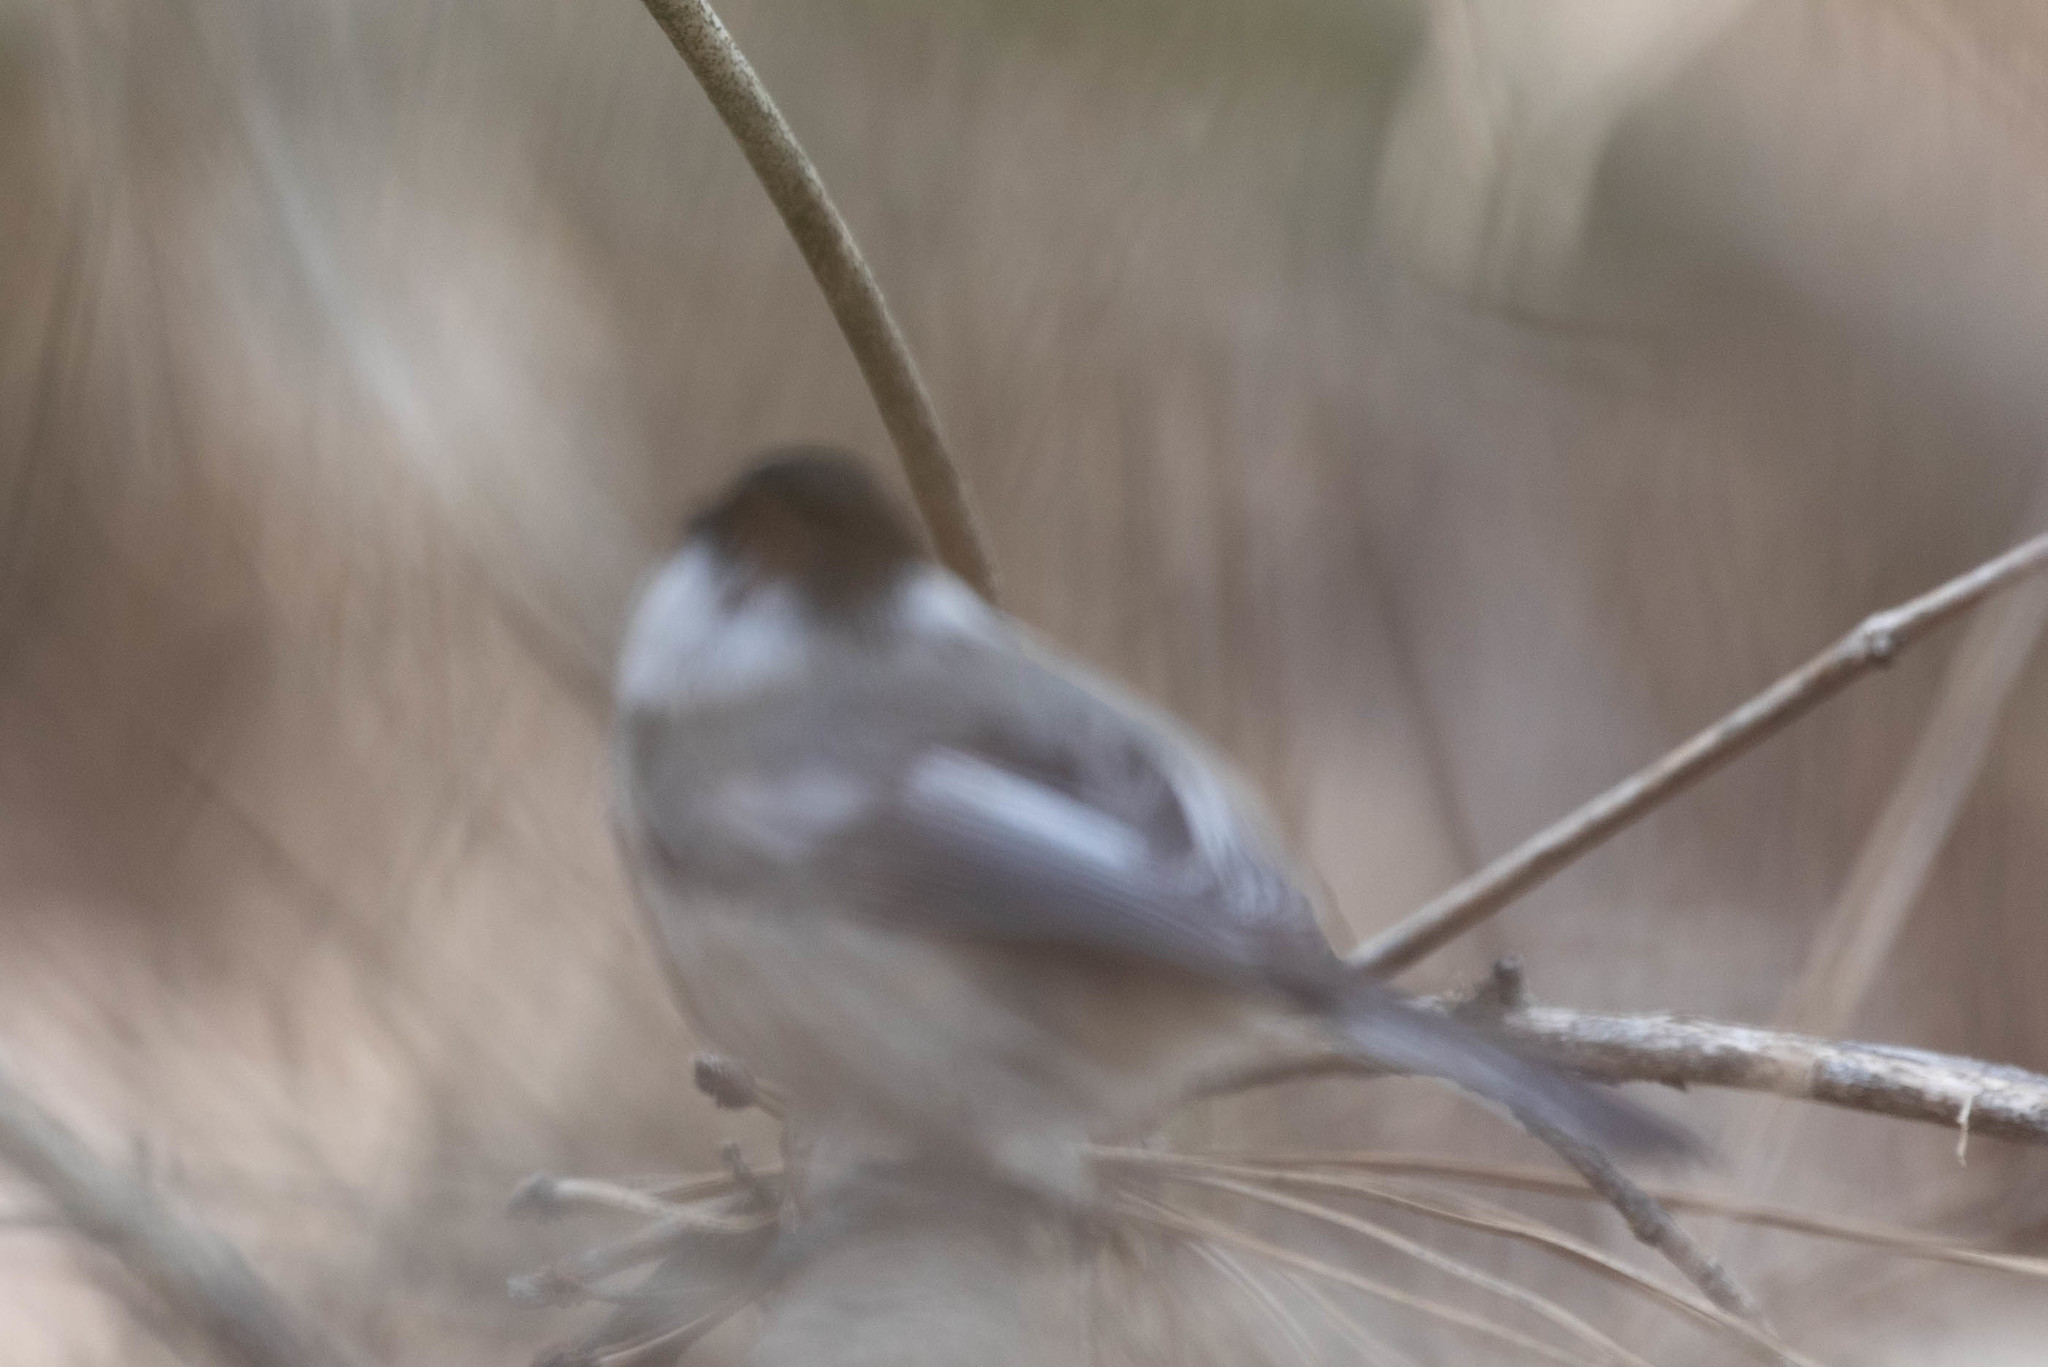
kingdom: Animalia
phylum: Chordata
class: Aves
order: Passeriformes
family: Paridae
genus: Poecile
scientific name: Poecile atricapillus
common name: Black-capped chickadee
